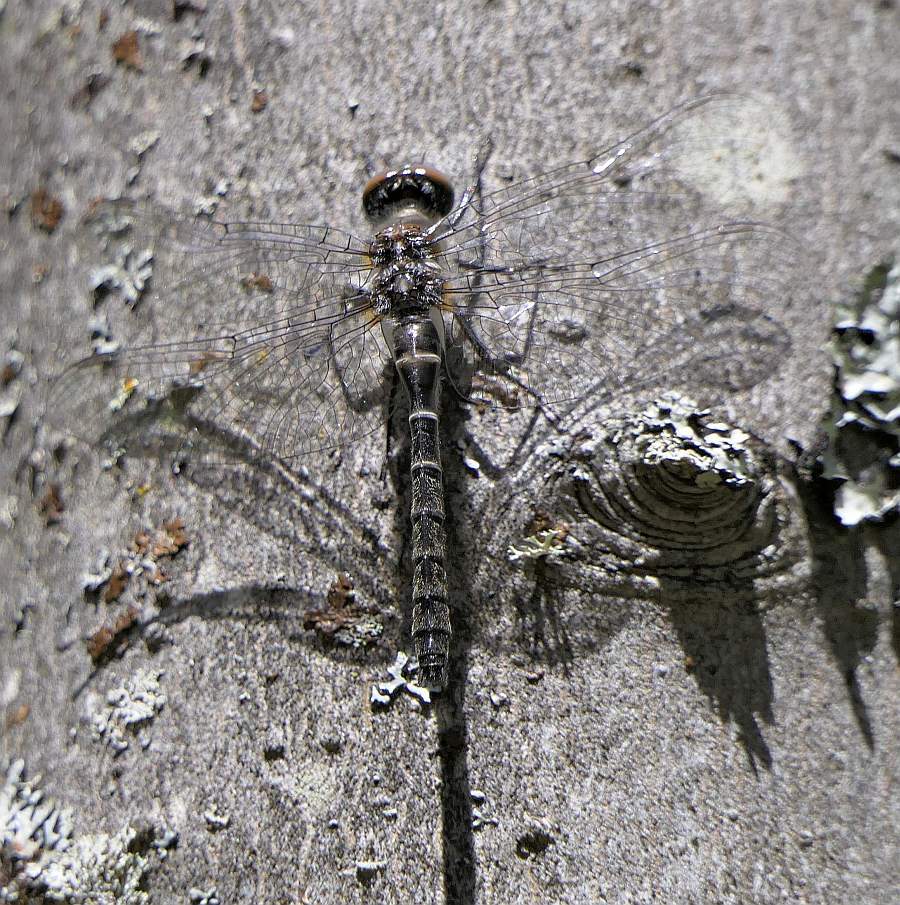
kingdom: Animalia
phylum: Arthropoda
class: Insecta
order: Odonata
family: Corduliidae
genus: Williamsonia
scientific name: Williamsonia fletcheri
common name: Ebony boghaunter
